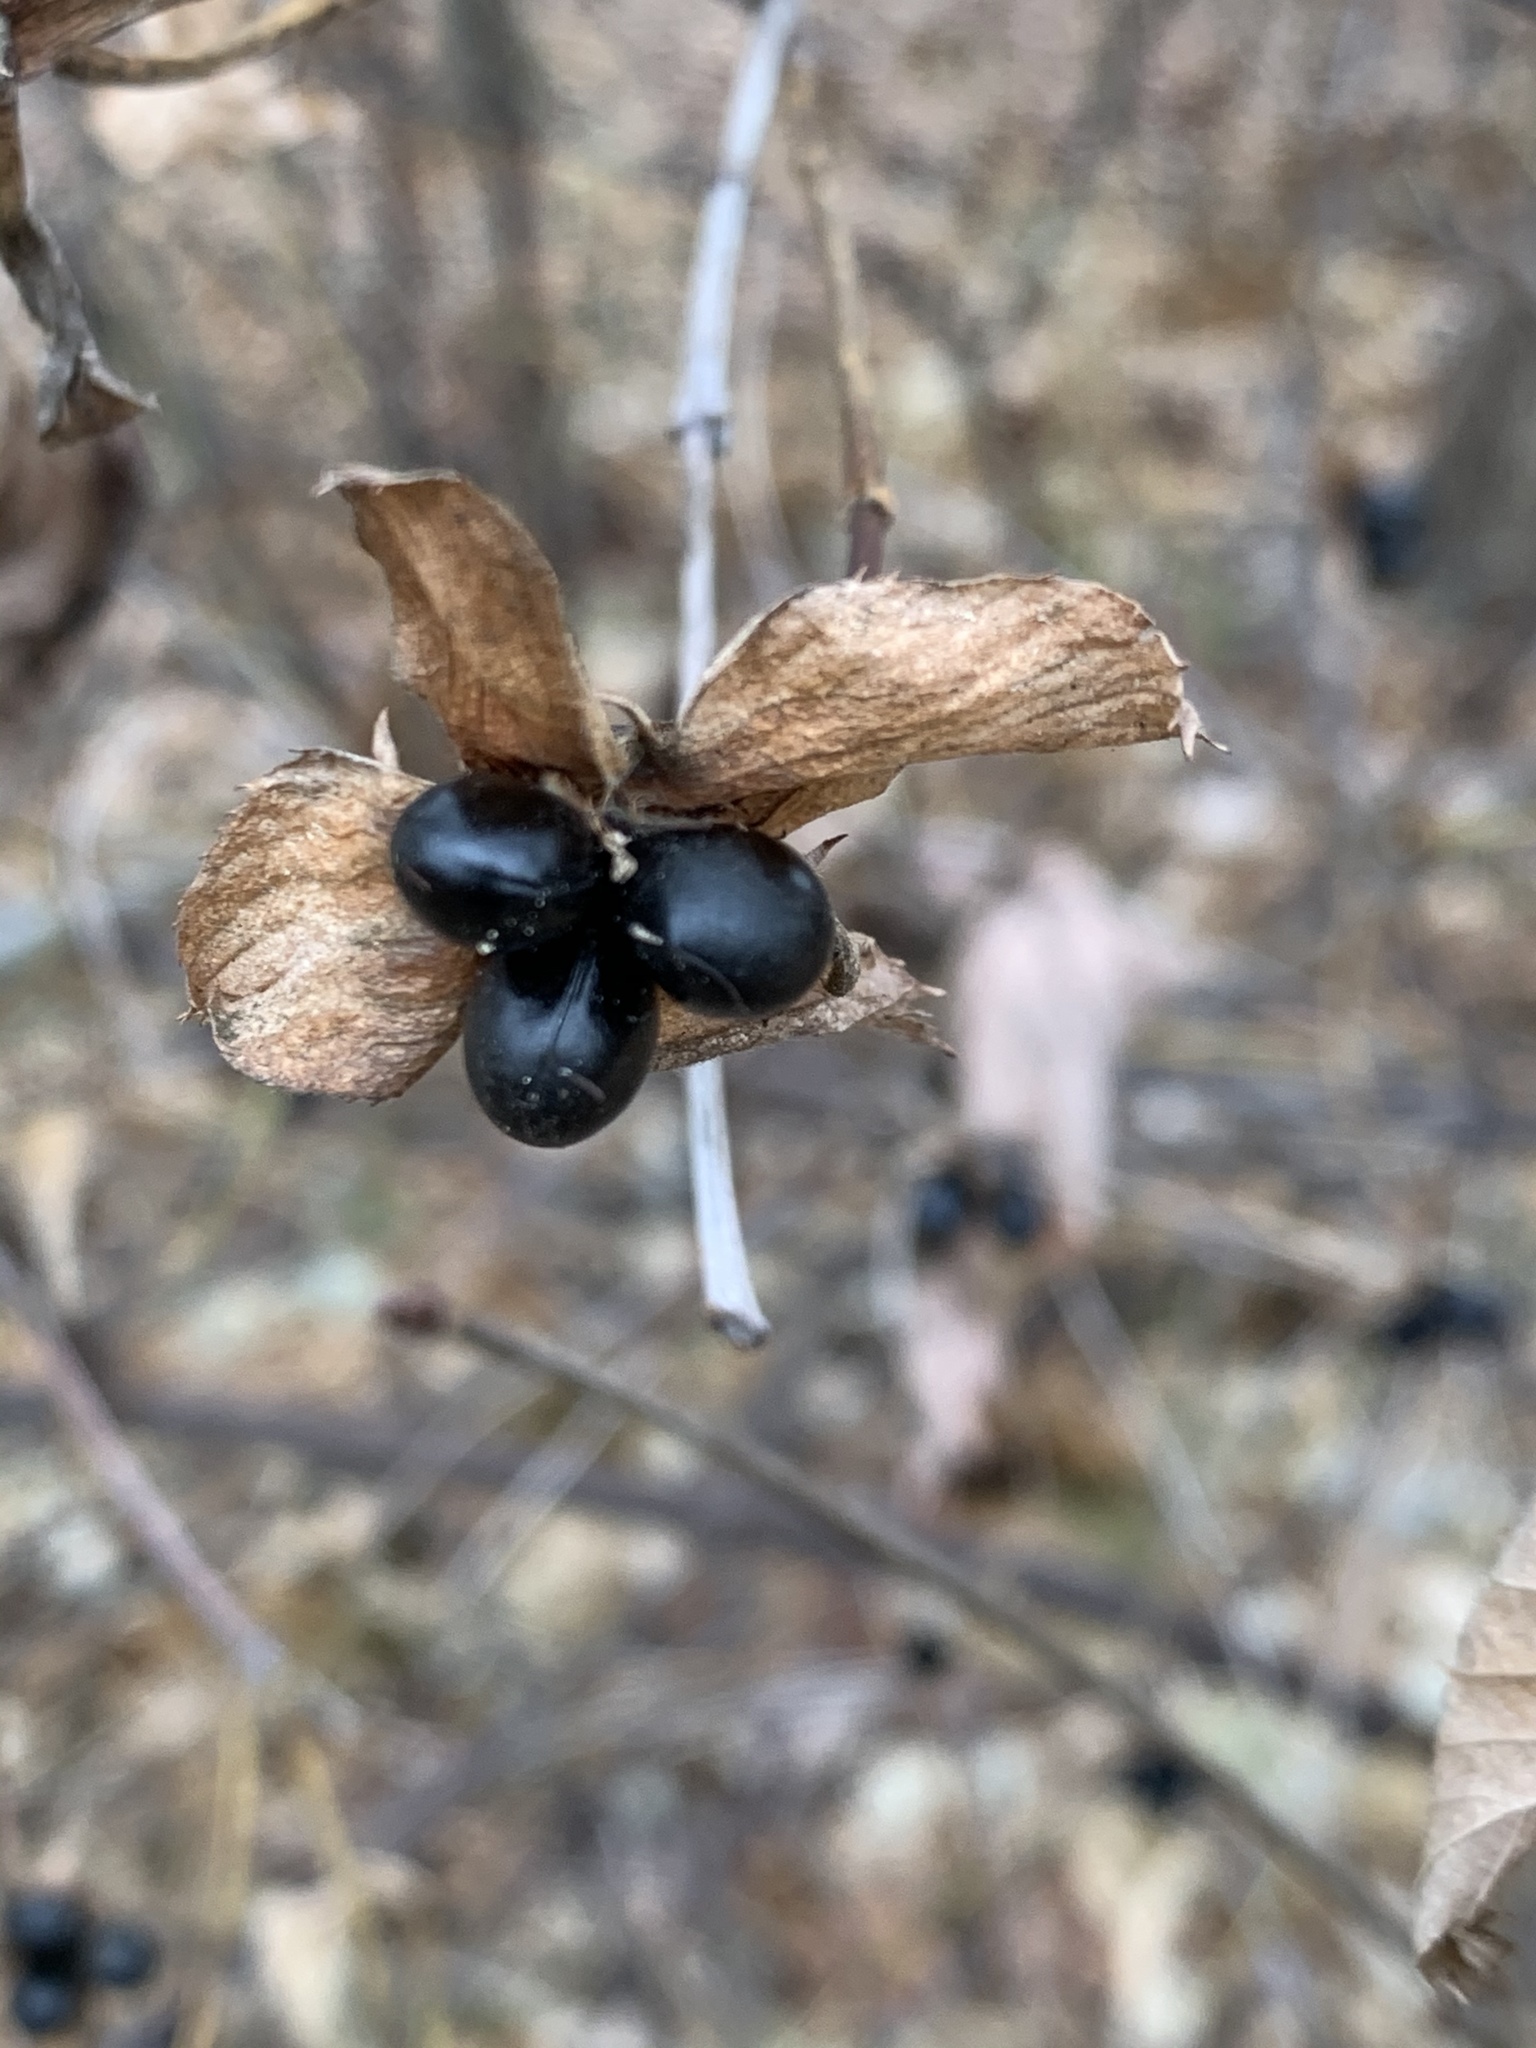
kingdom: Plantae
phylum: Tracheophyta
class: Magnoliopsida
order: Rosales
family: Rosaceae
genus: Rhodotypos
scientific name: Rhodotypos scandens
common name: Jetbead
